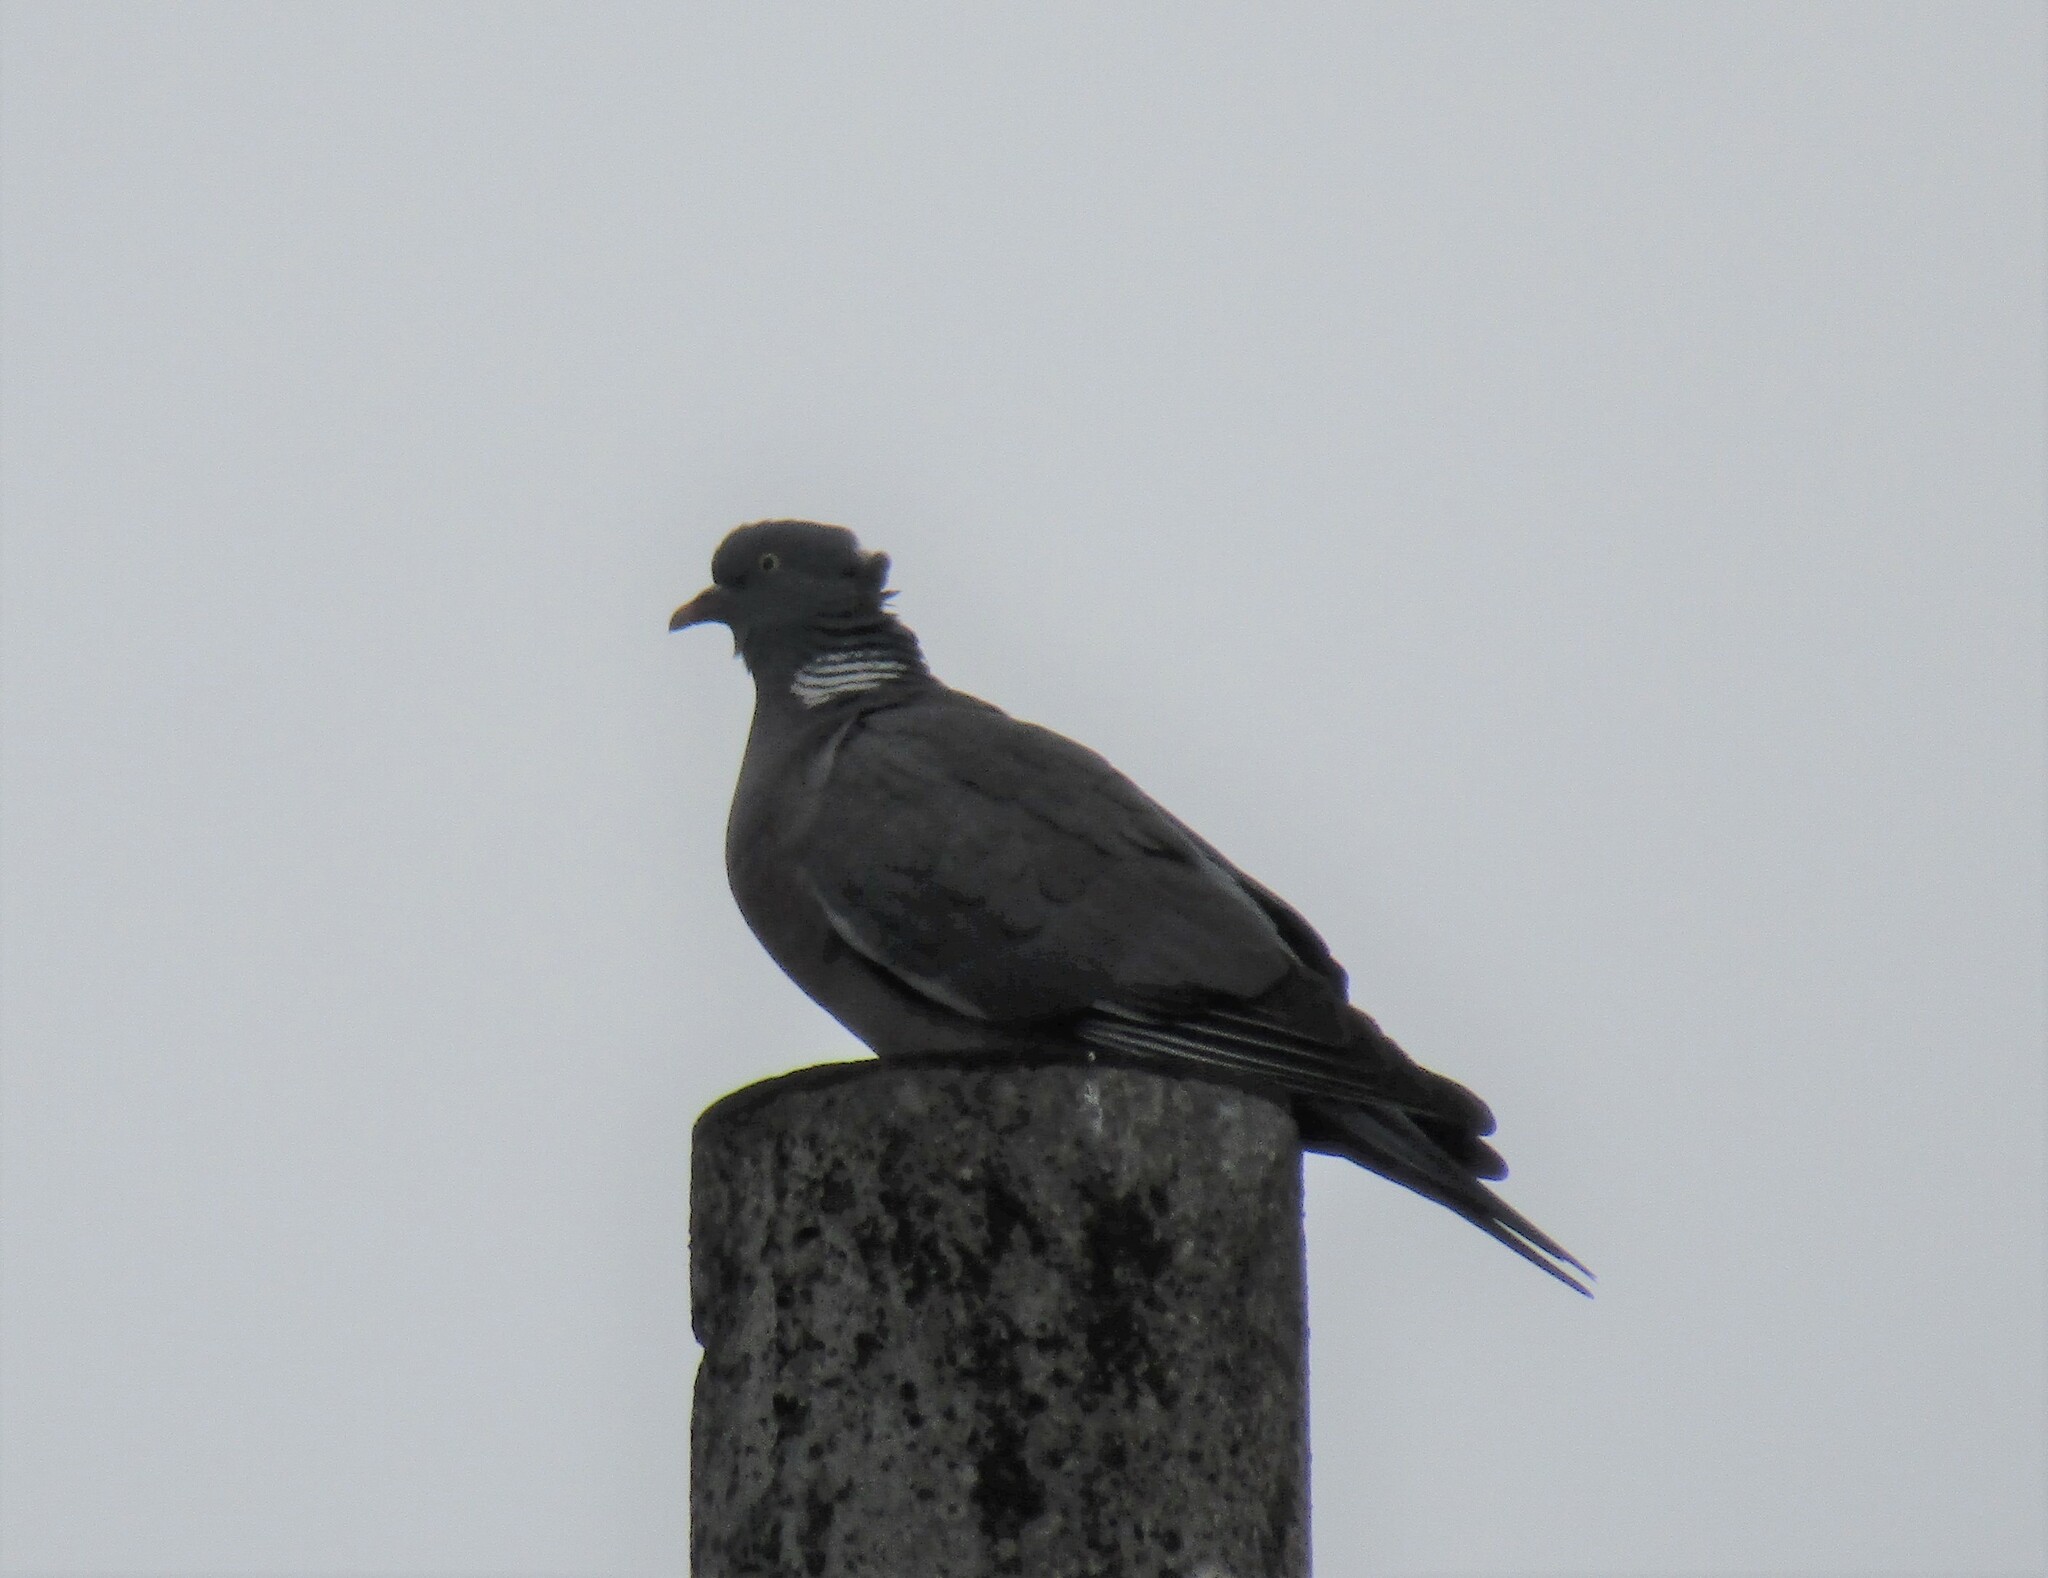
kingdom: Animalia
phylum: Chordata
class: Aves
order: Columbiformes
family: Columbidae
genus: Columba
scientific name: Columba palumbus
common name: Common wood pigeon
